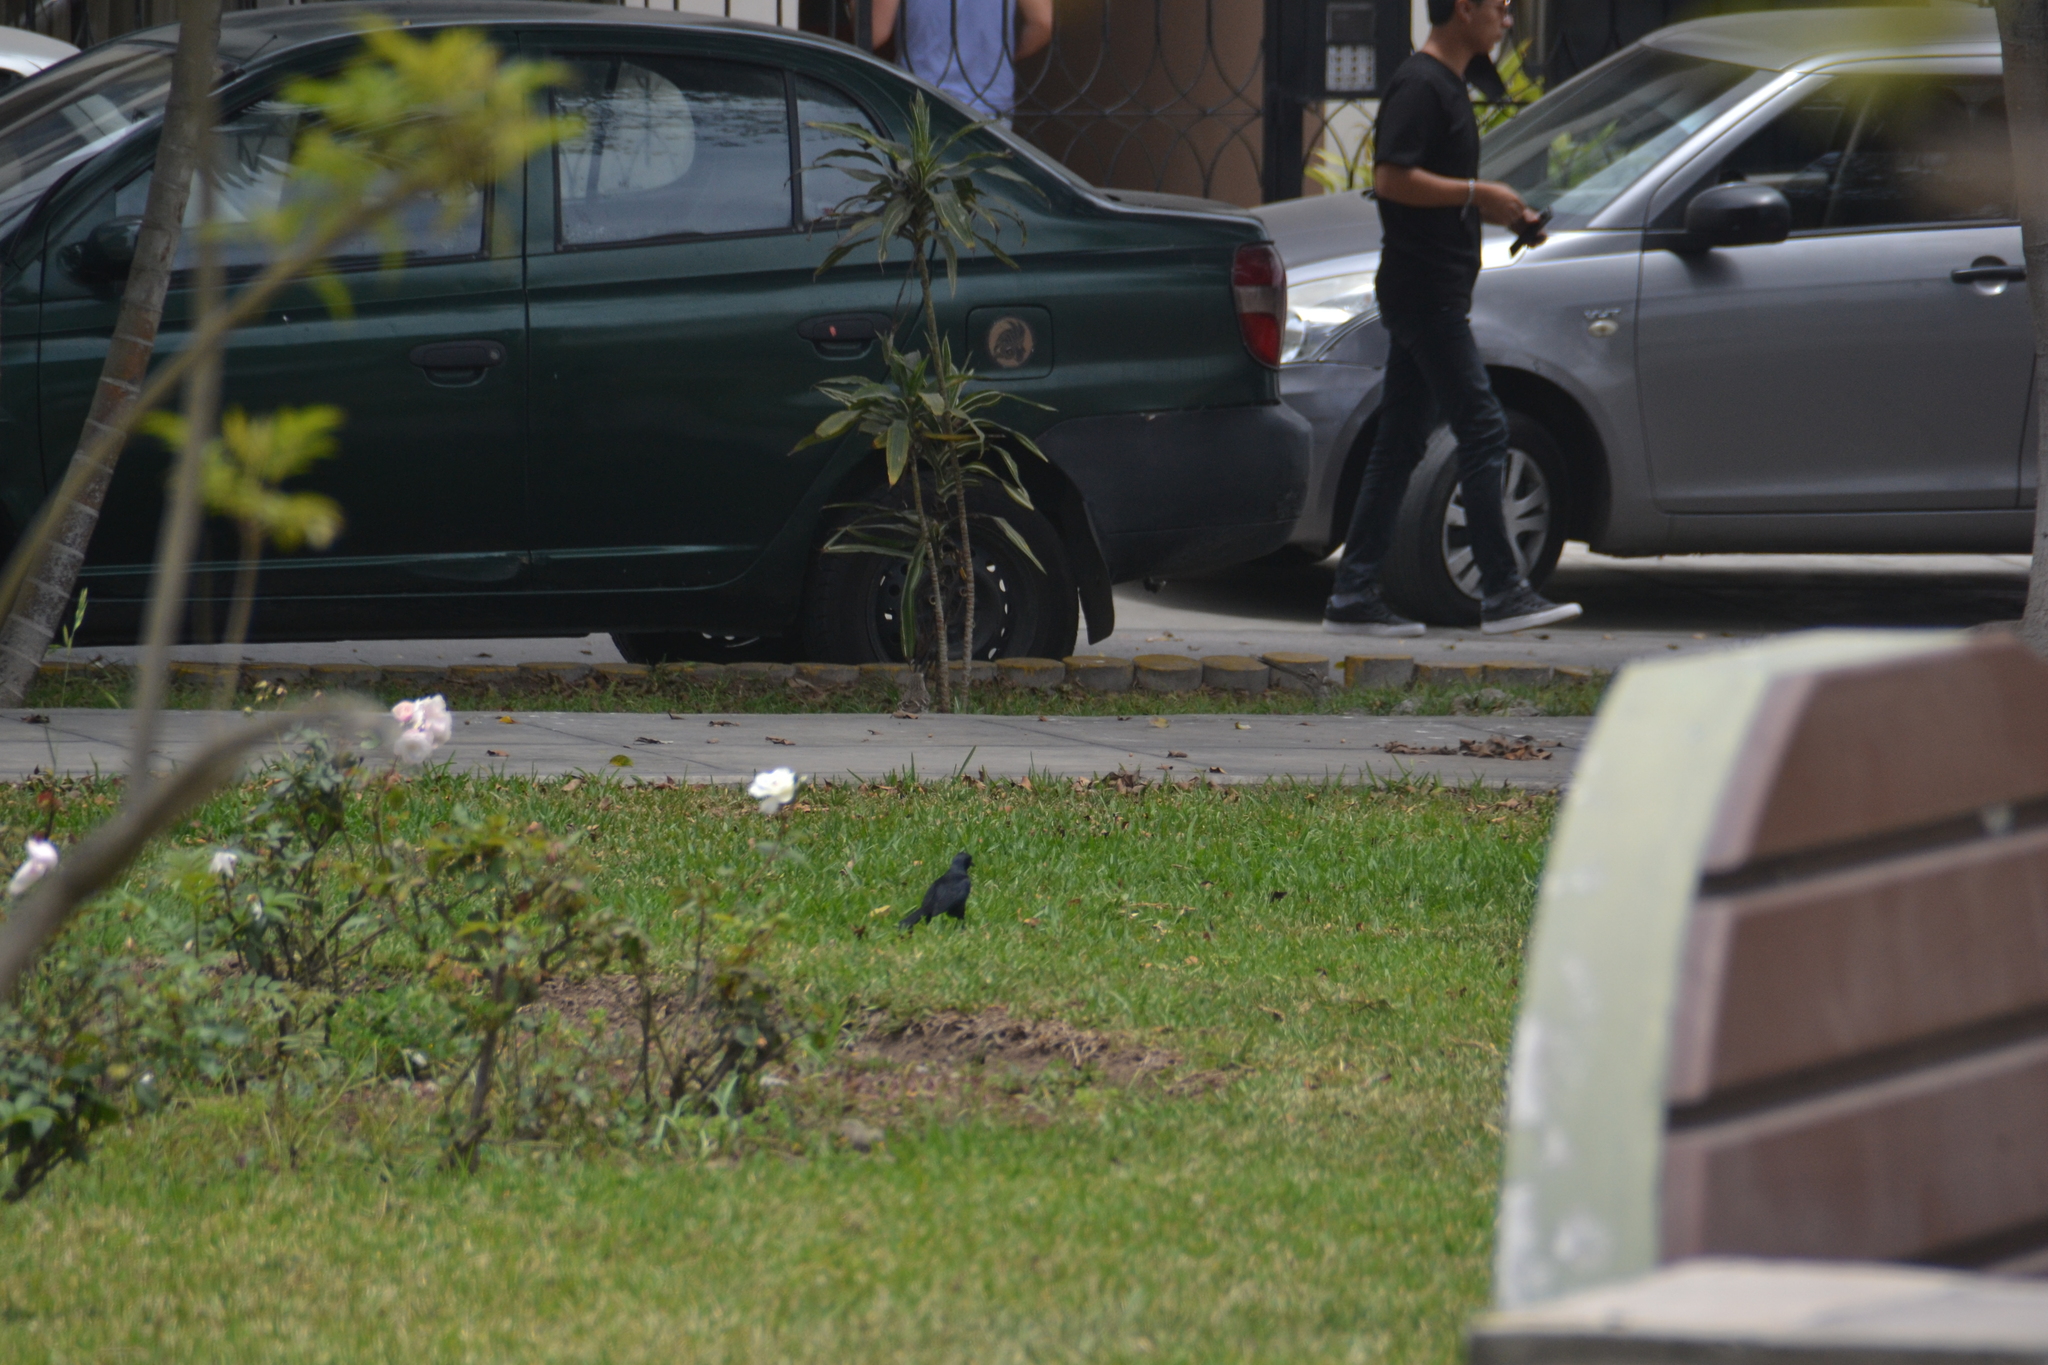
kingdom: Animalia
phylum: Chordata
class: Aves
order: Passeriformes
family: Icteridae
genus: Molothrus
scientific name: Molothrus bonariensis
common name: Shiny cowbird
